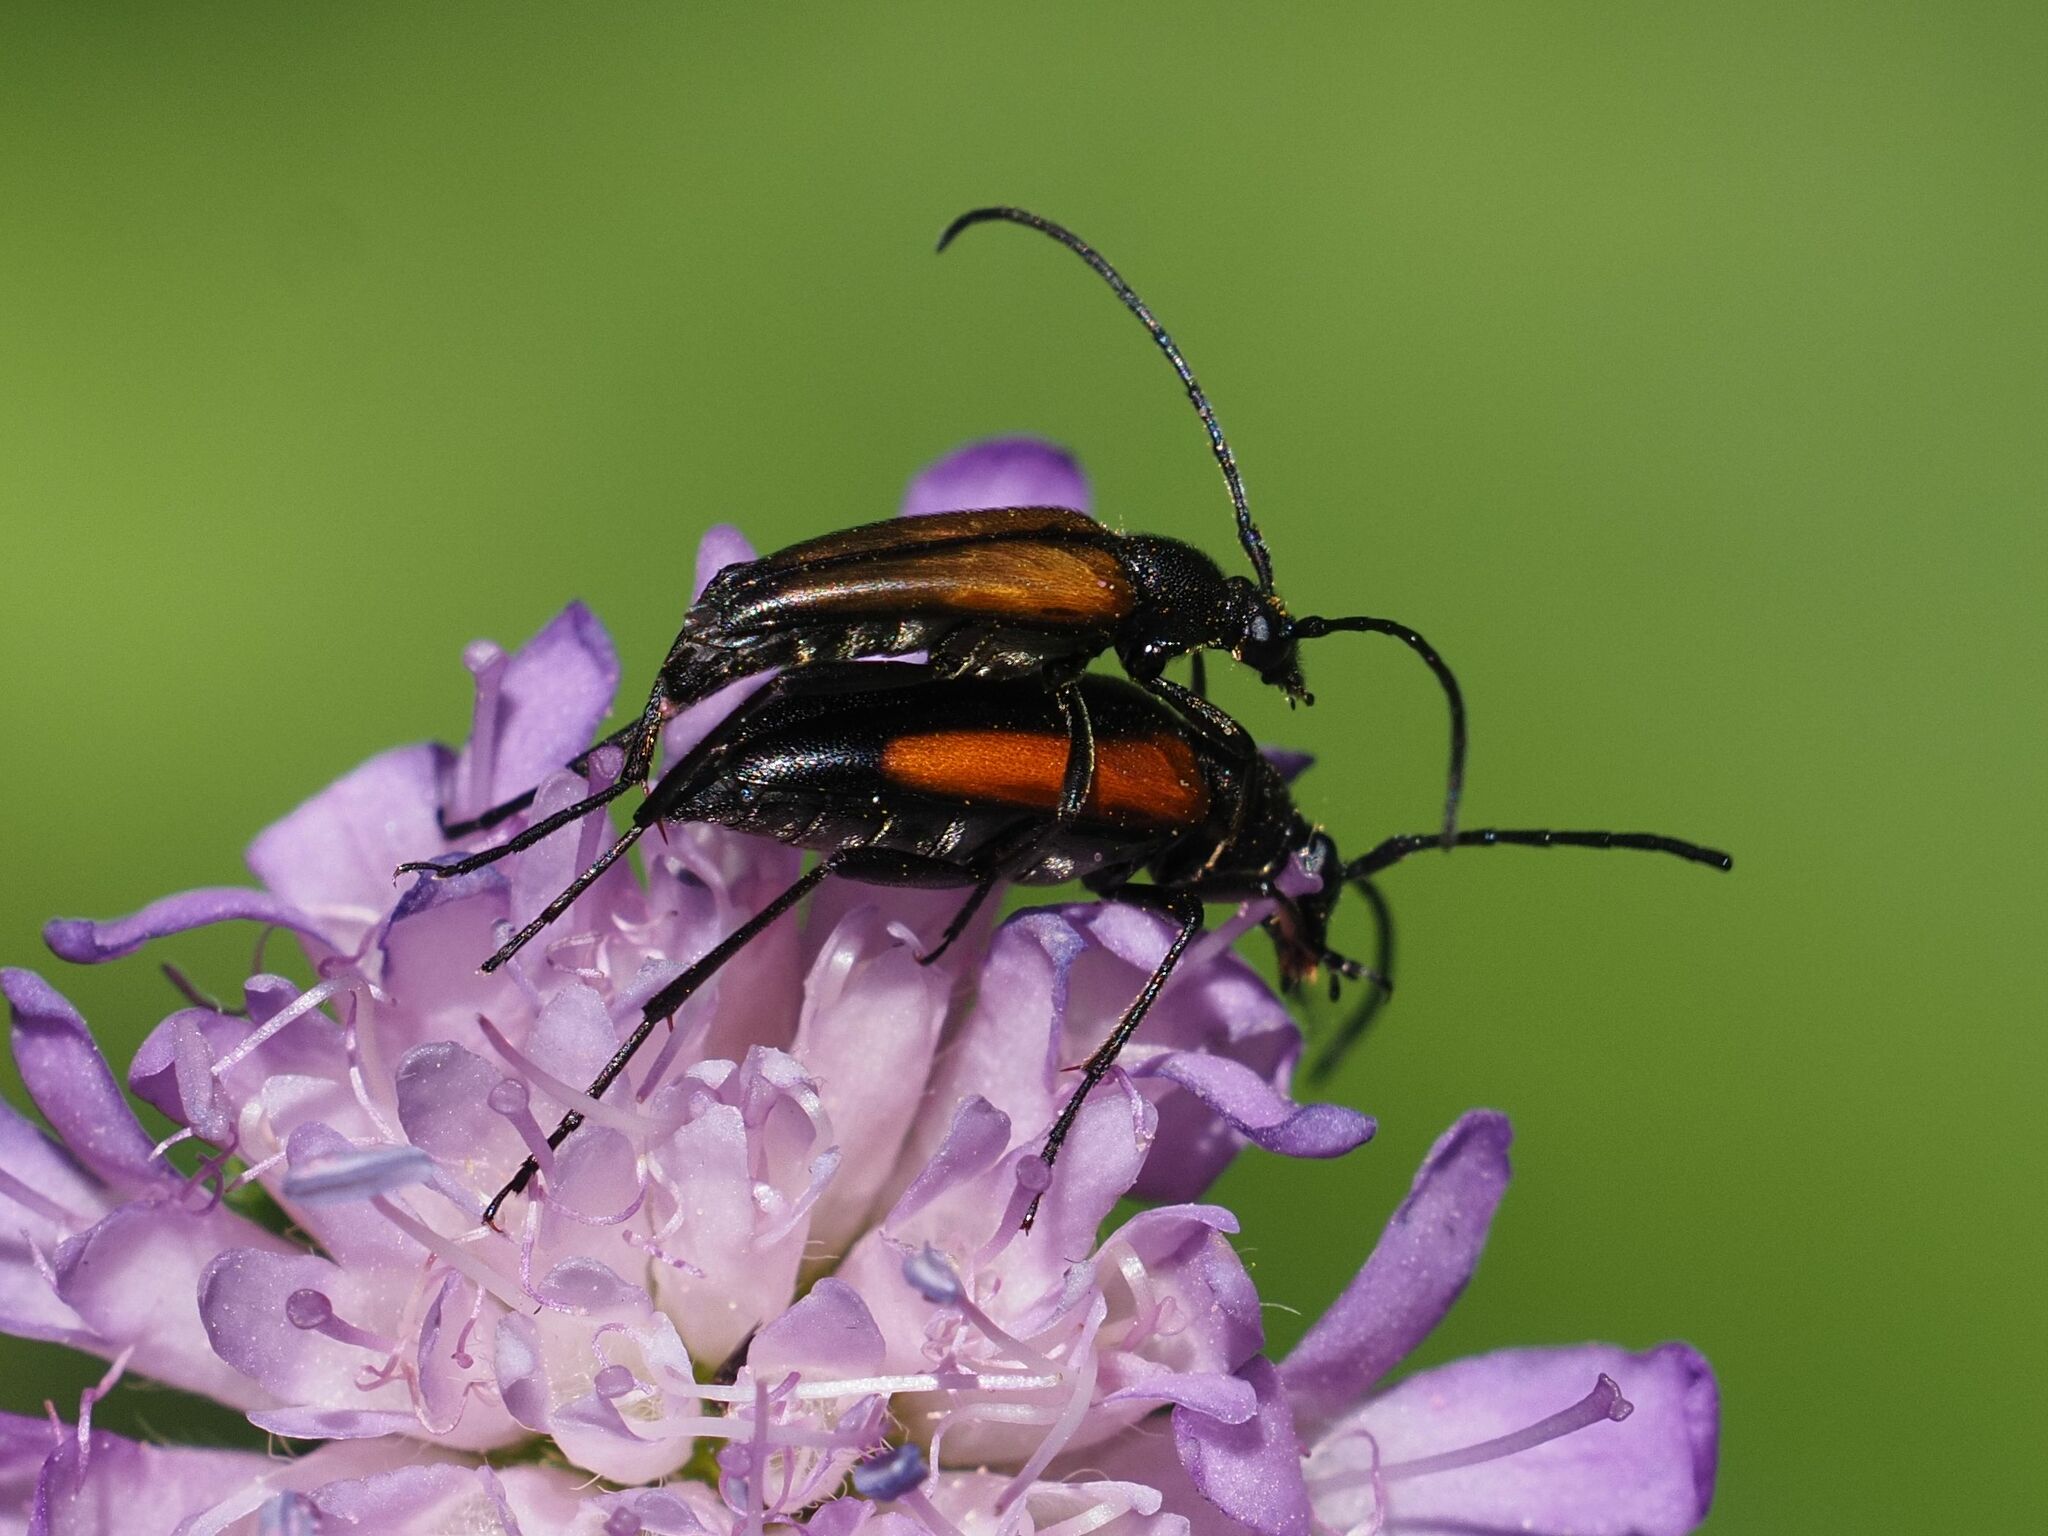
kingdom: Animalia
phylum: Arthropoda
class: Insecta
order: Coleoptera
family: Cerambycidae
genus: Stenurella
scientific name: Stenurella melanura
